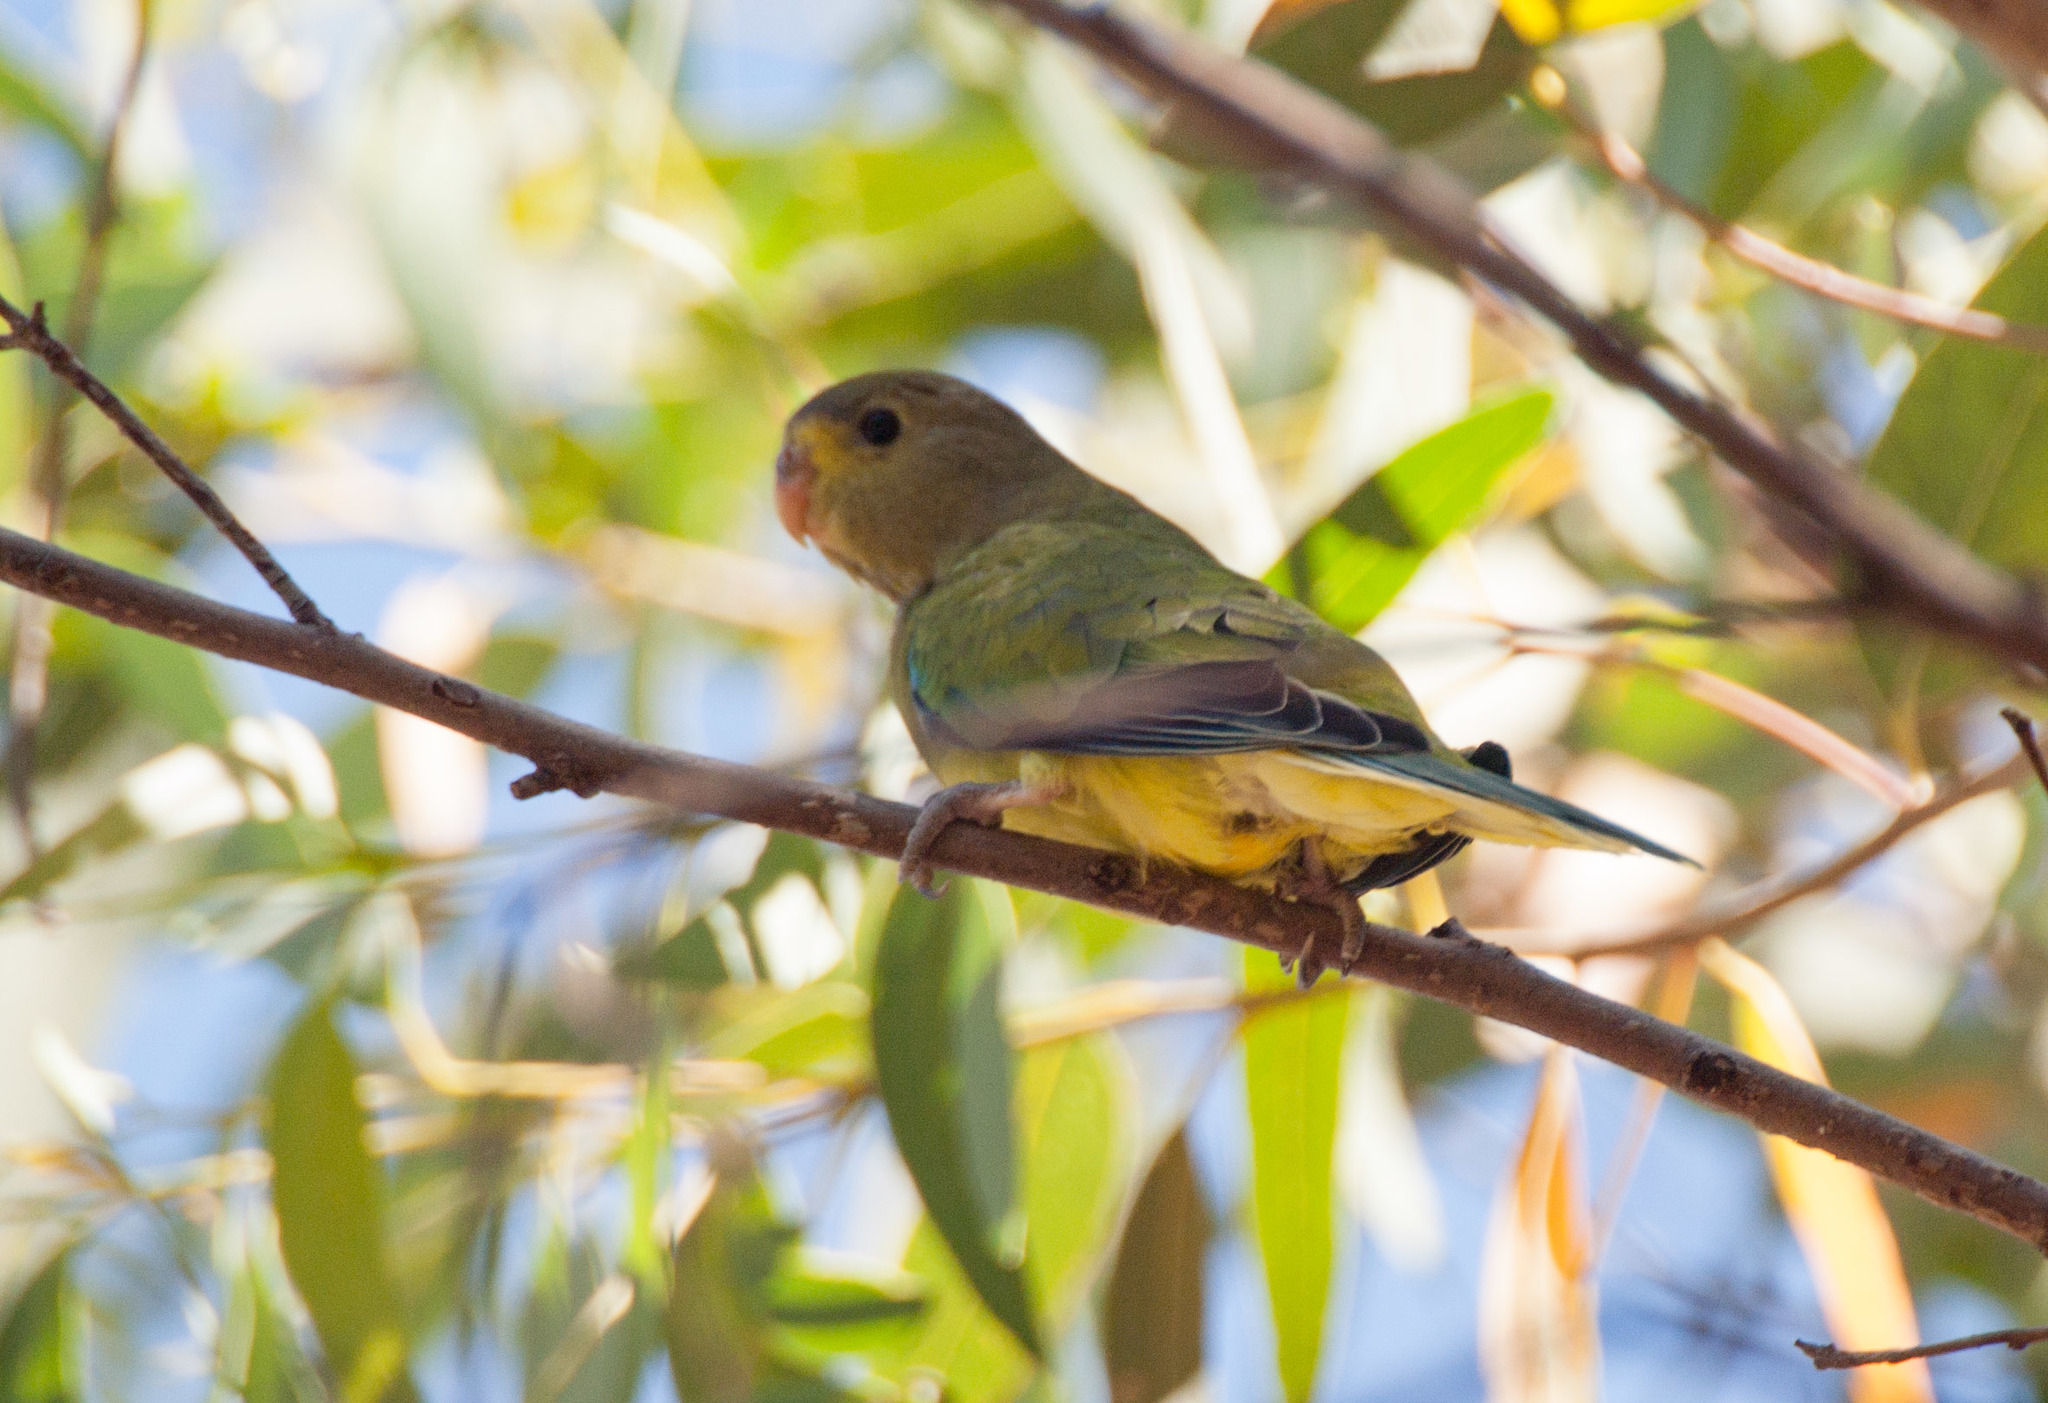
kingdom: Animalia
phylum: Chordata
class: Aves
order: Psittaciformes
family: Psittacidae
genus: Neophema
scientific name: Neophema elegans
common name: Elegant parrot
